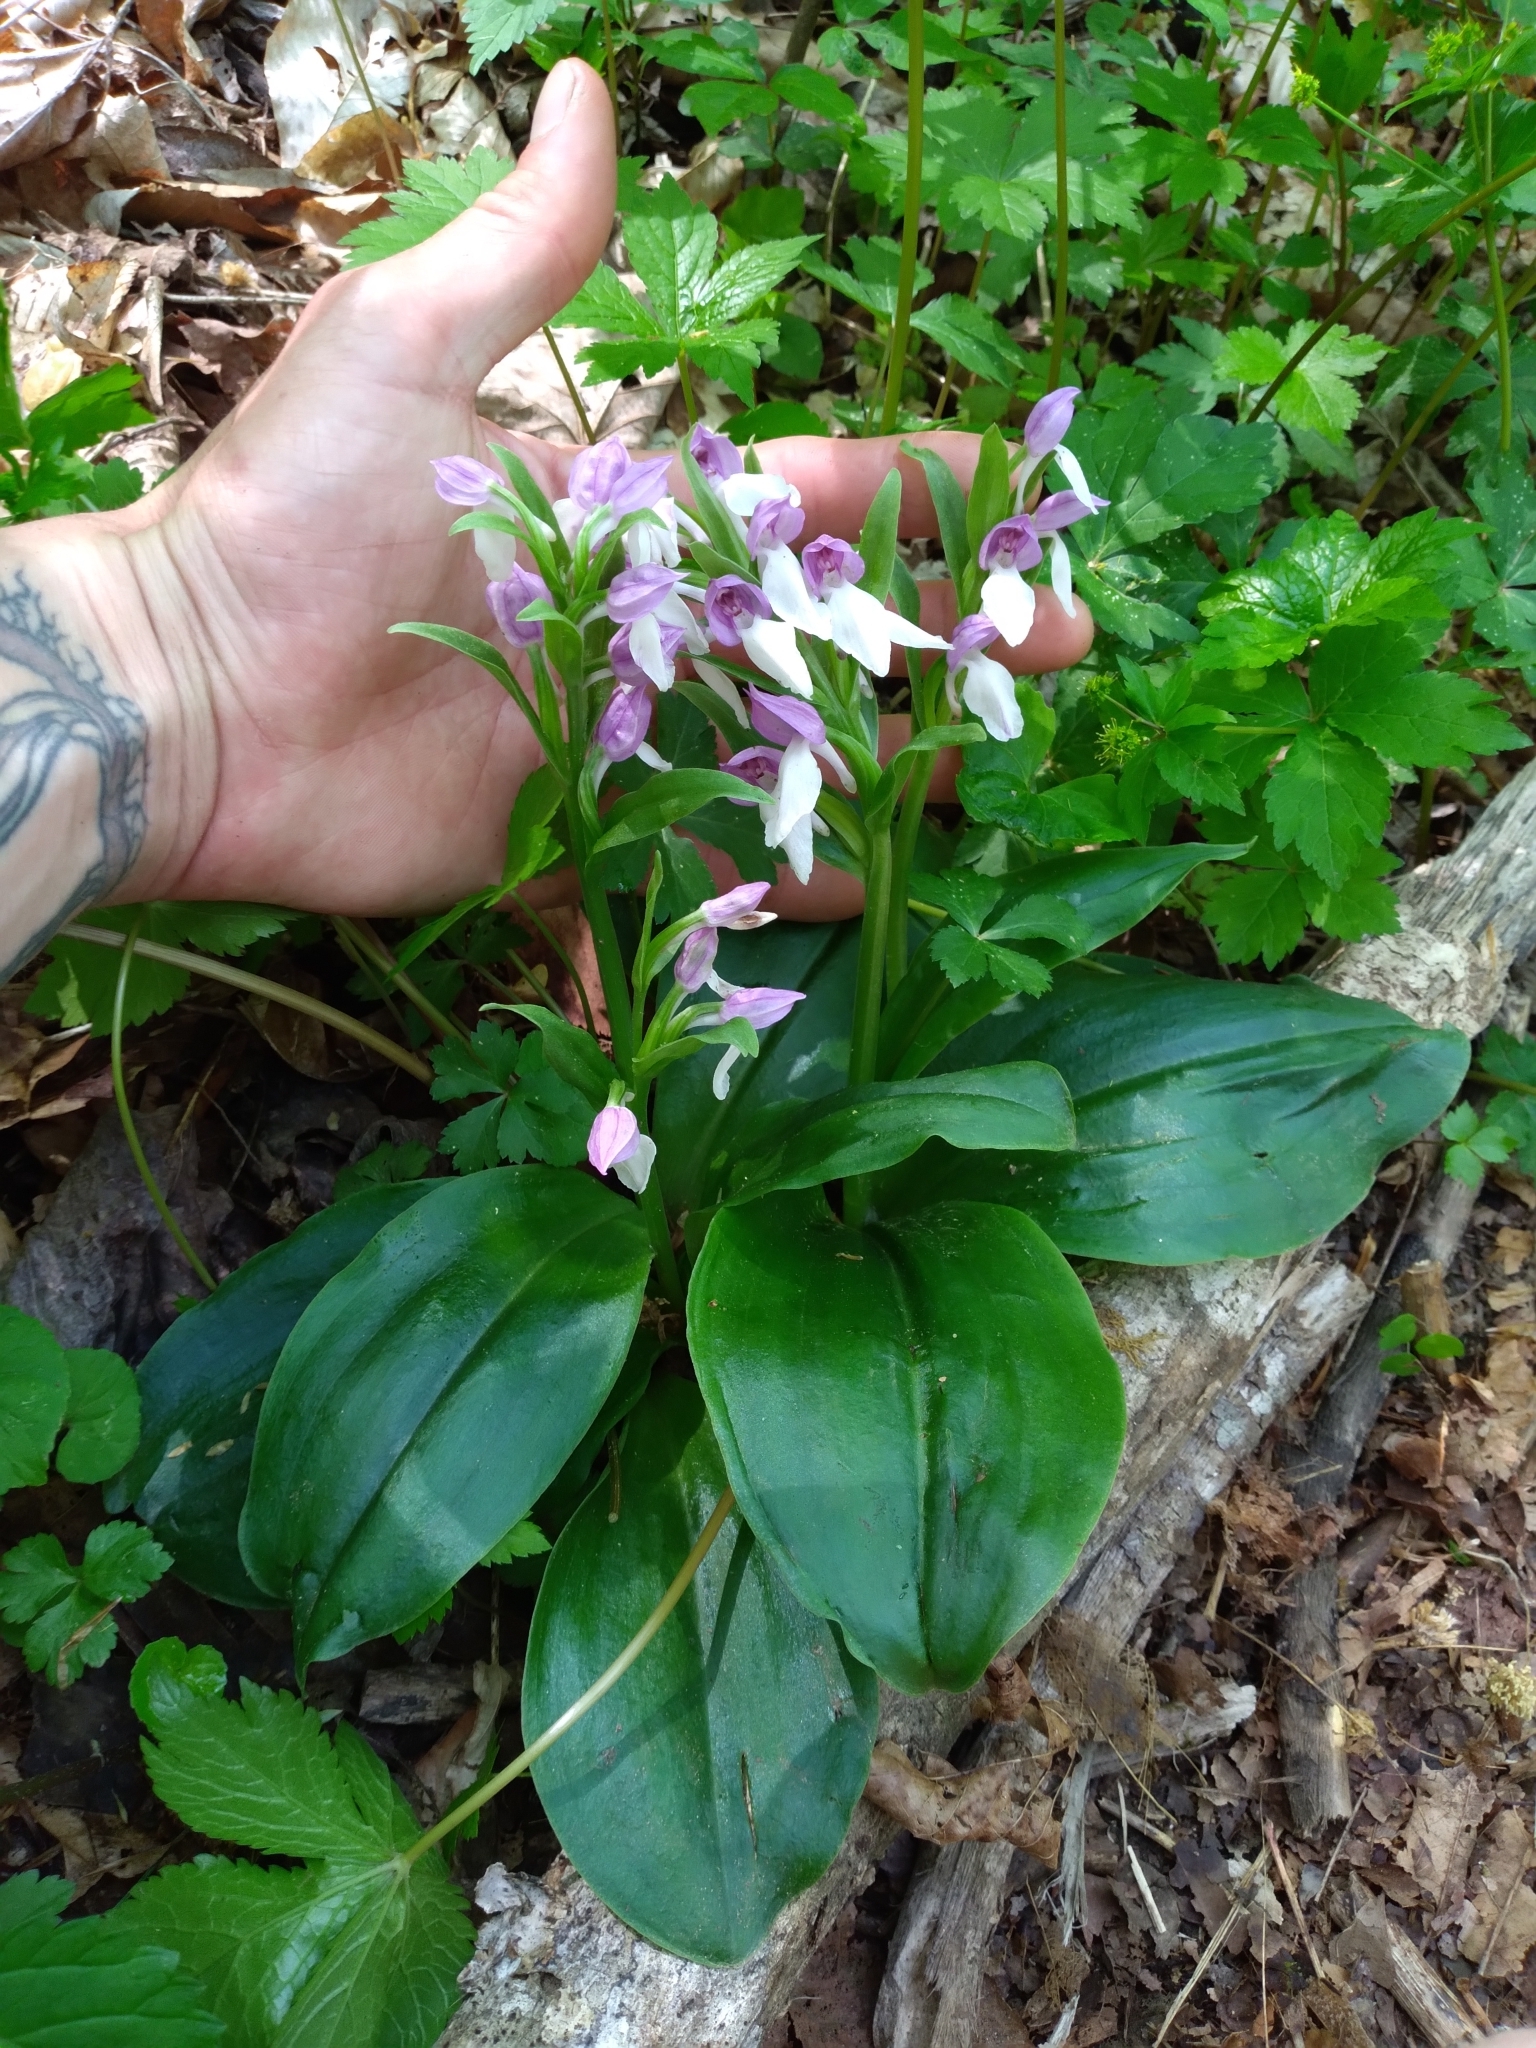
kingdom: Plantae
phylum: Tracheophyta
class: Liliopsida
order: Asparagales
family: Orchidaceae
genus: Galearis
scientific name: Galearis spectabilis
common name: Purple-hooded orchis
